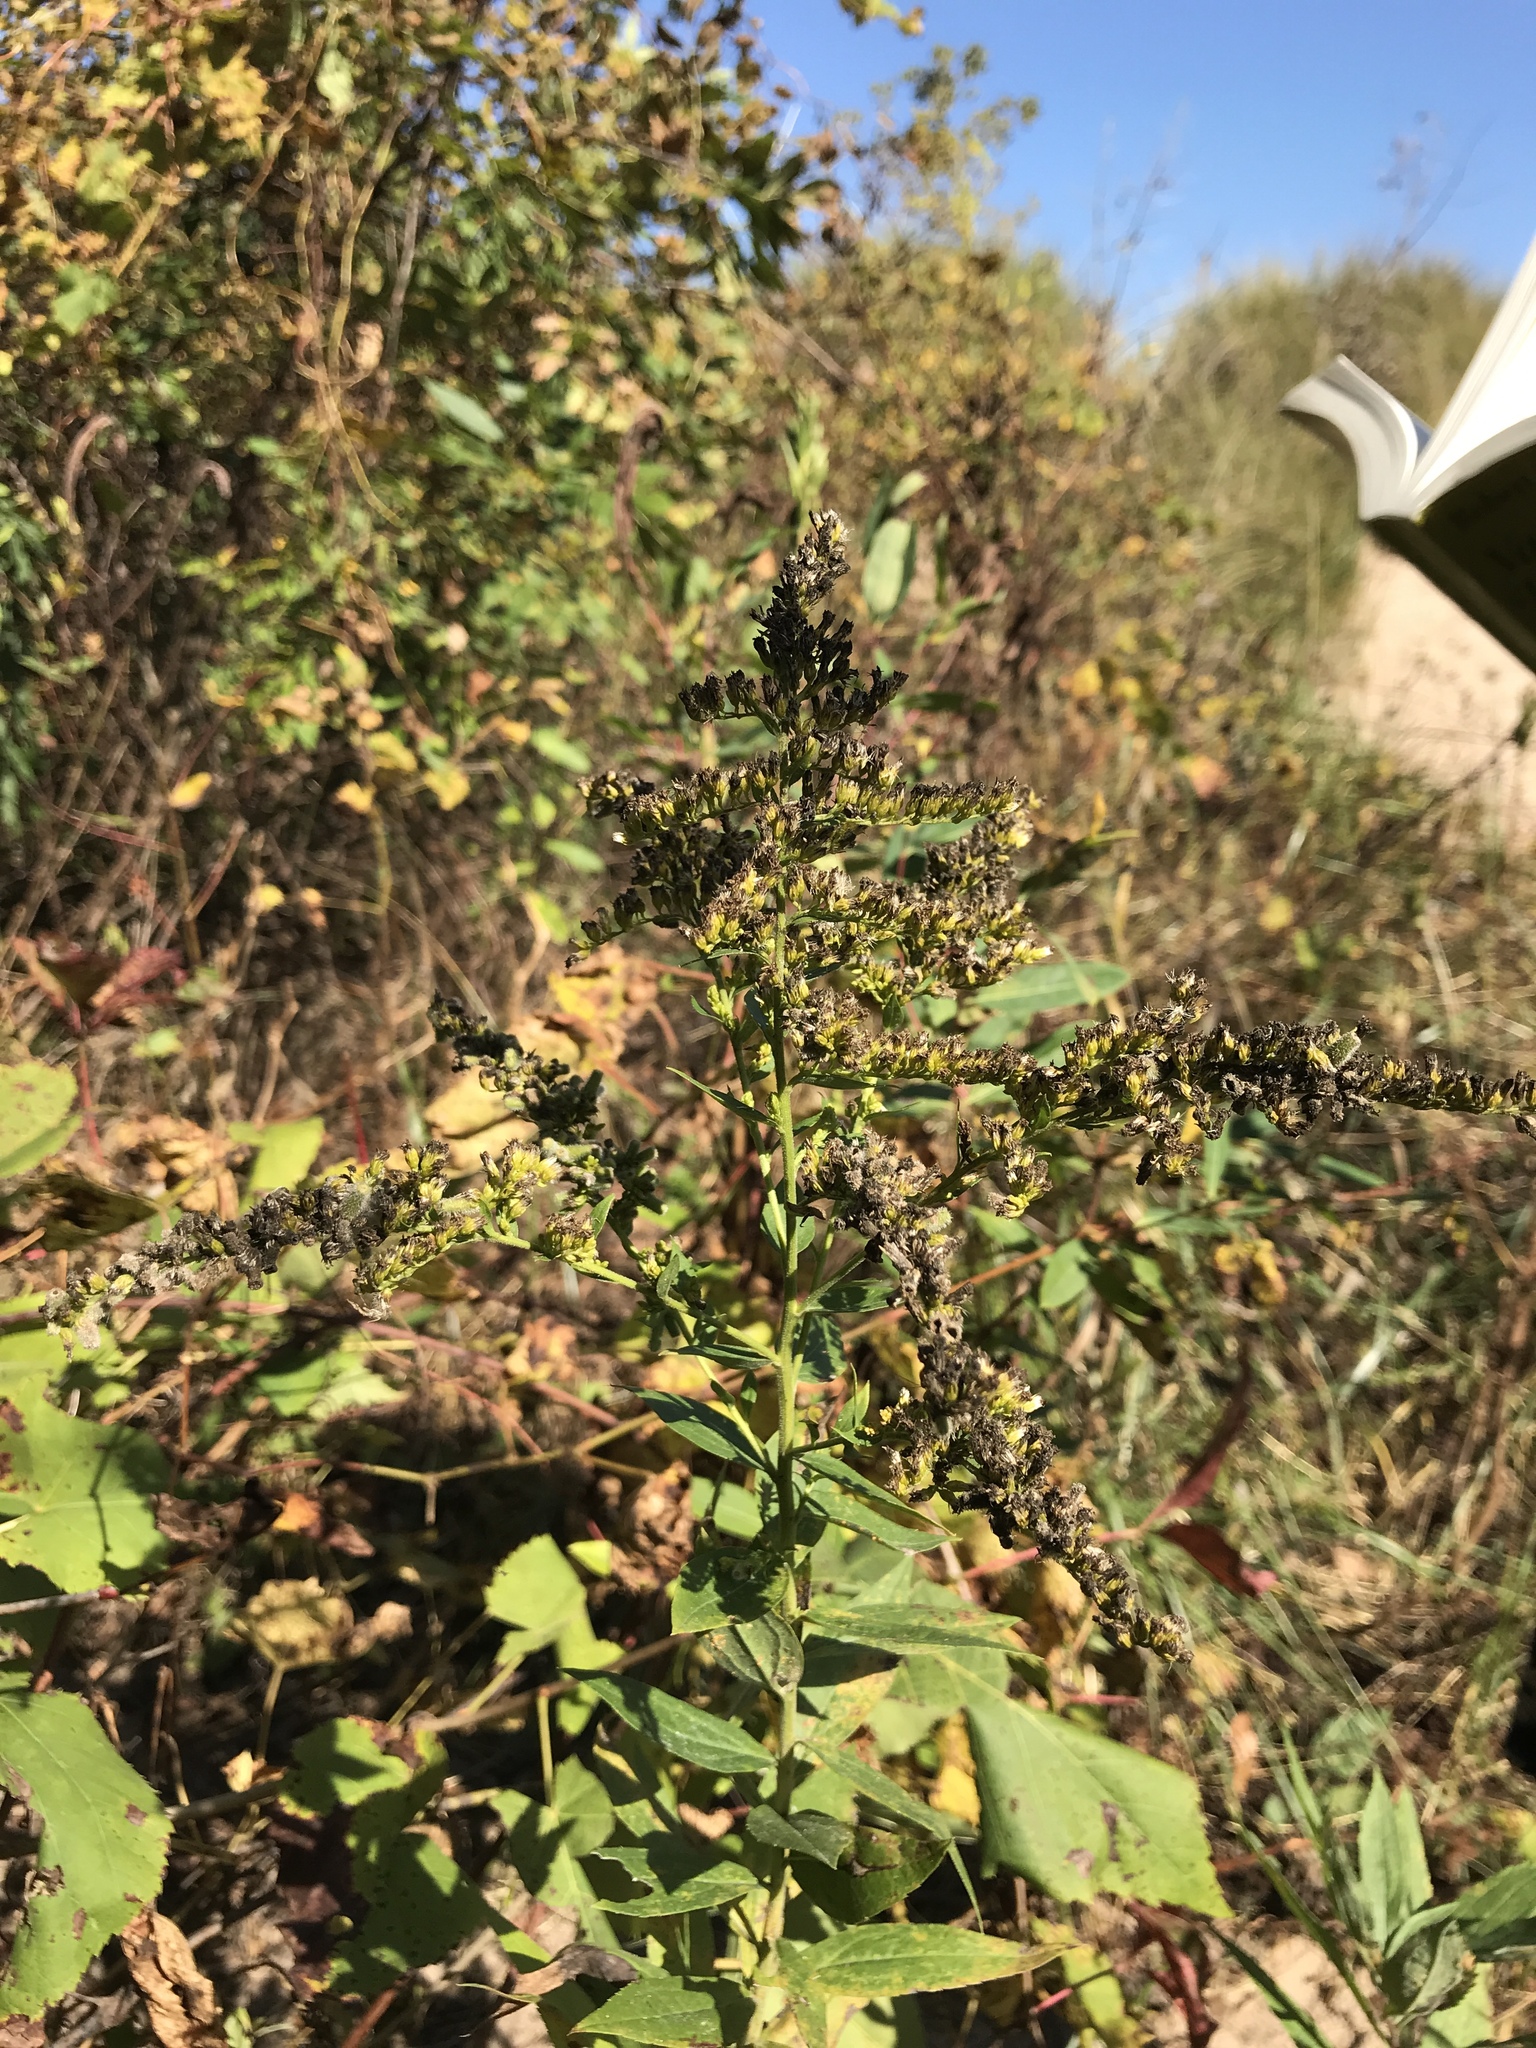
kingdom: Plantae
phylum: Tracheophyta
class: Magnoliopsida
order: Asterales
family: Asteraceae
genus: Solidago
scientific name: Solidago altissima
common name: Late goldenrod
